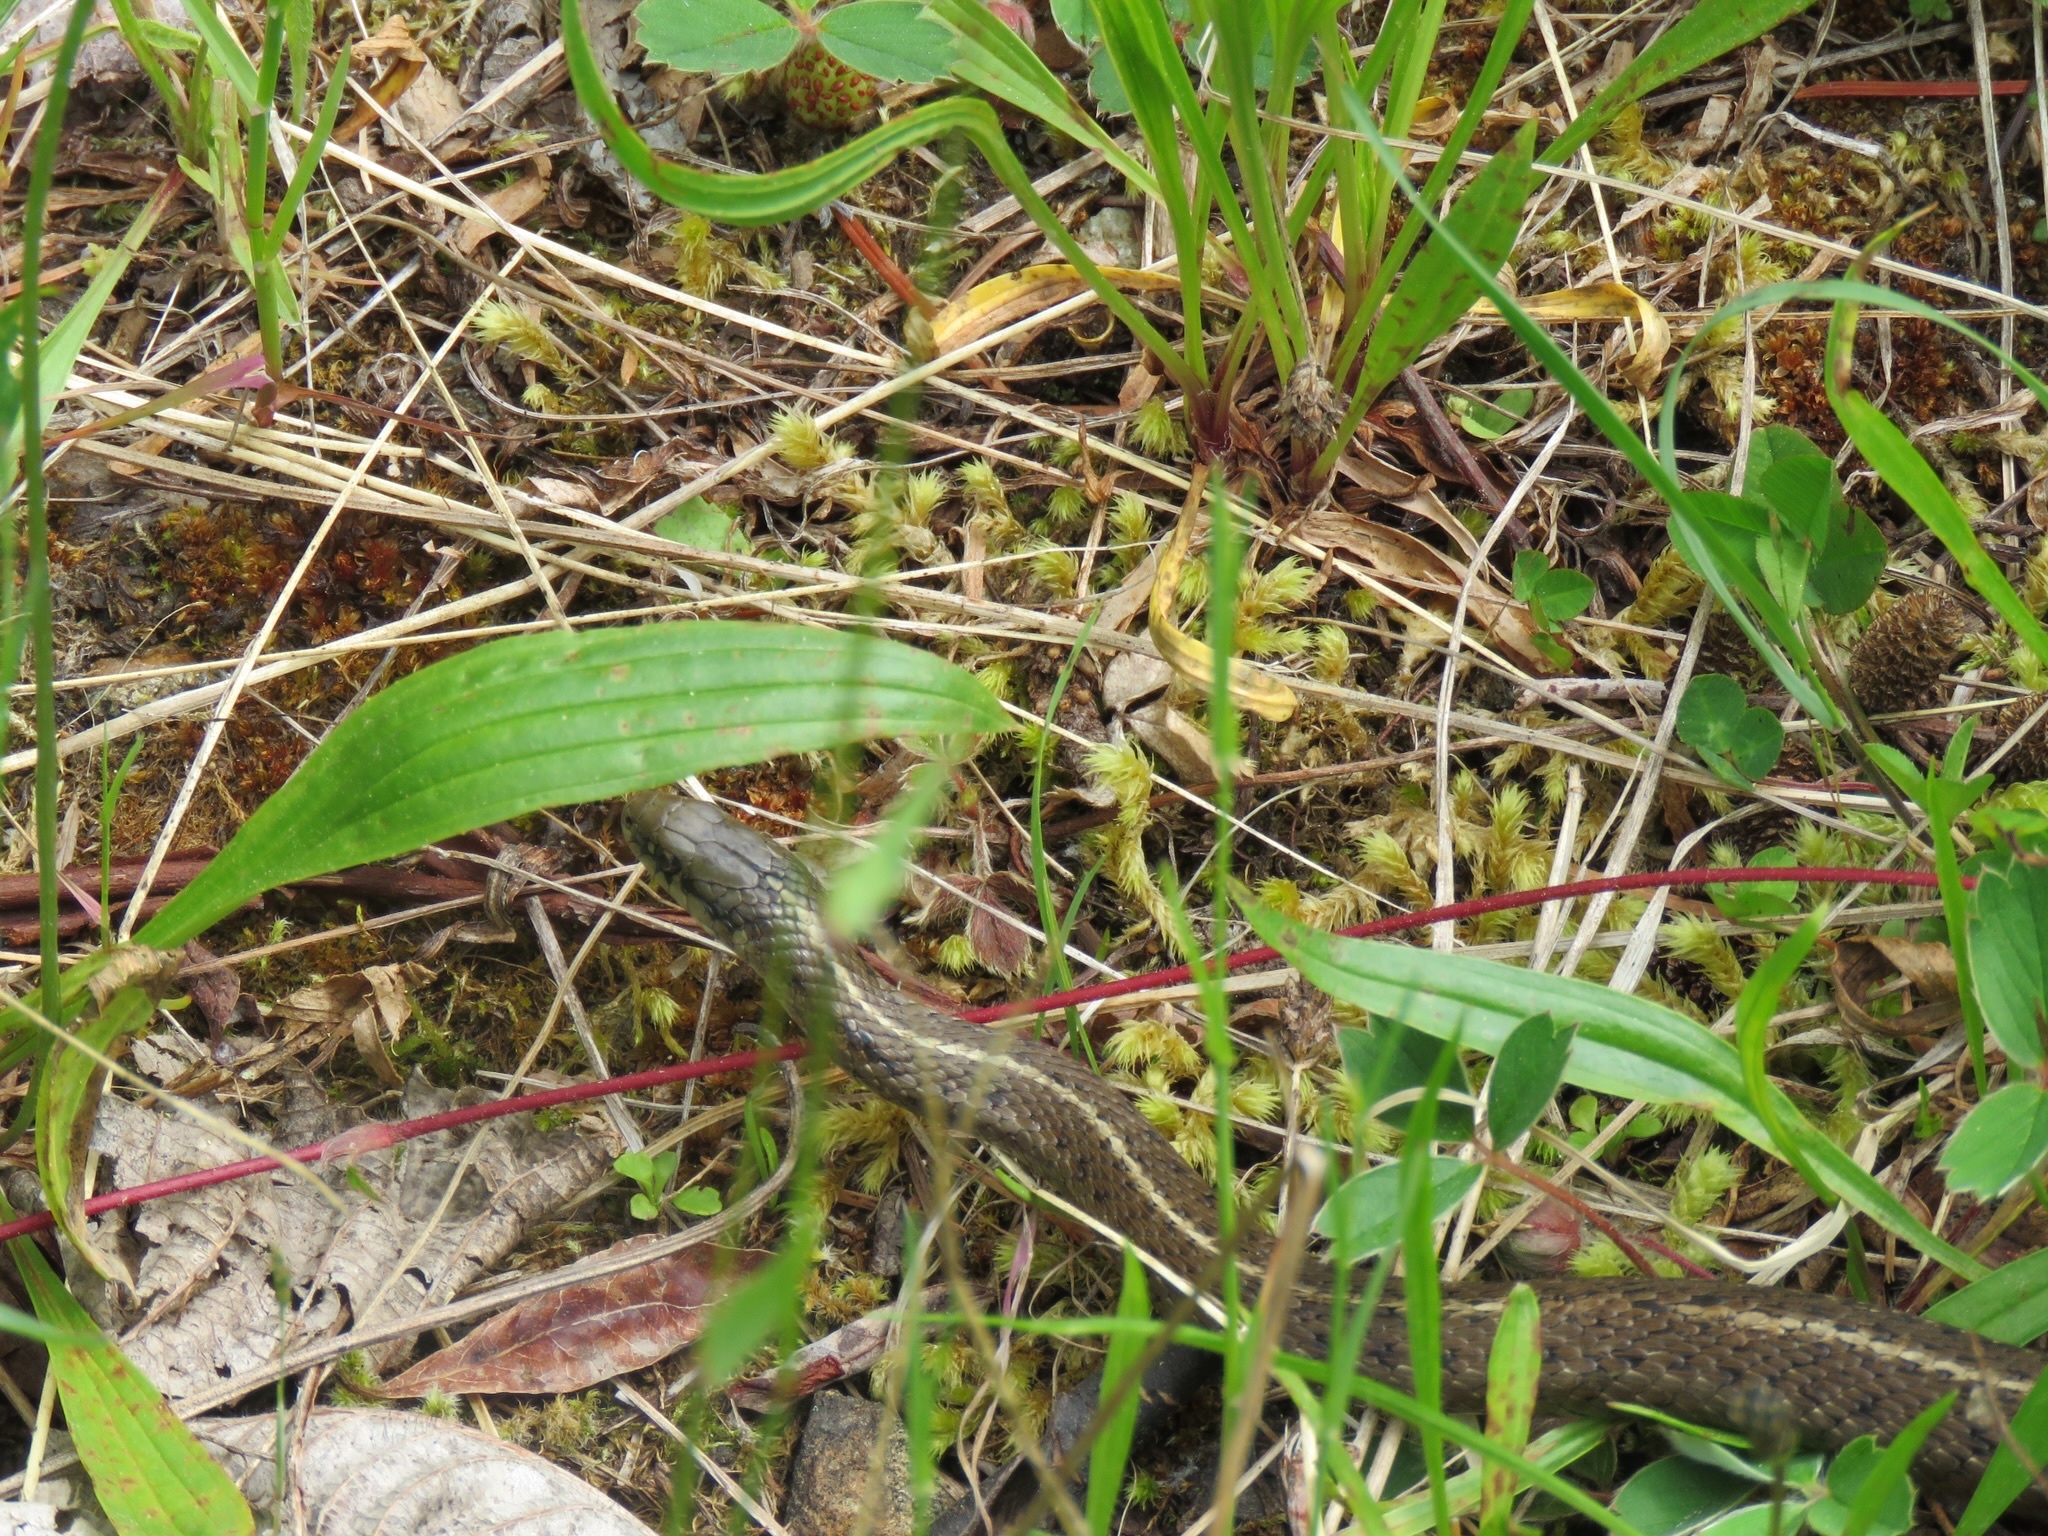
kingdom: Animalia
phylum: Chordata
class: Squamata
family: Colubridae
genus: Thamnophis
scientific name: Thamnophis ordinoides
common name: Northwestern garter snake
